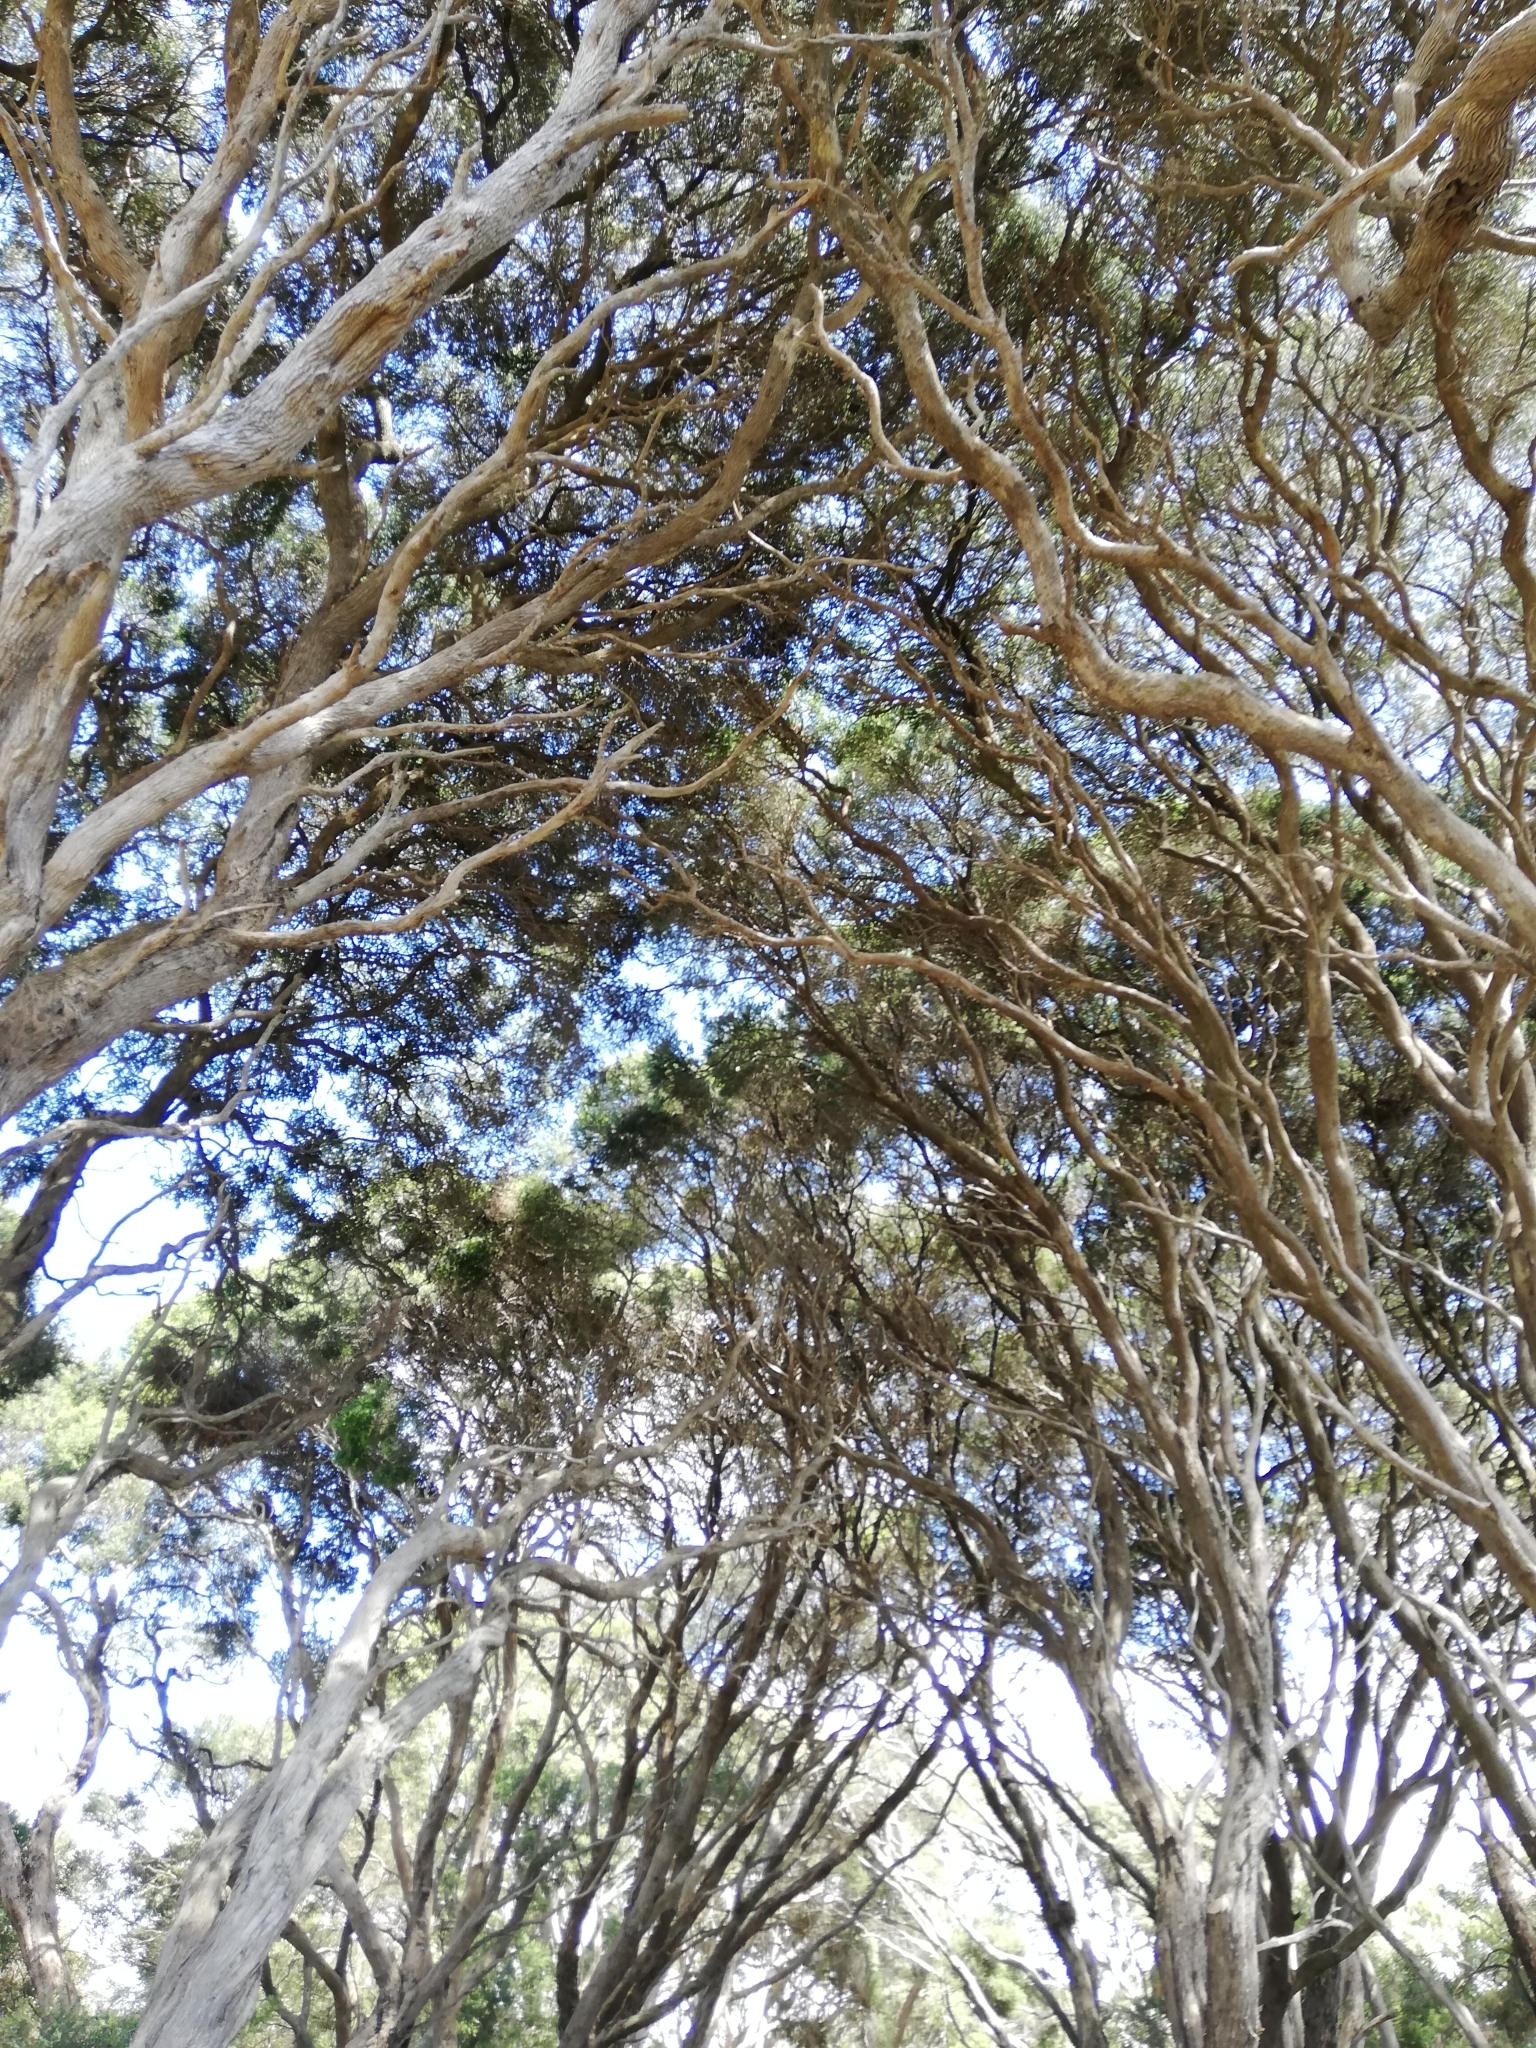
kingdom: Plantae
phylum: Tracheophyta
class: Magnoliopsida
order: Myrtales
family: Myrtaceae
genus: Melaleuca
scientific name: Melaleuca lanceolata
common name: Rottnest island teatree
